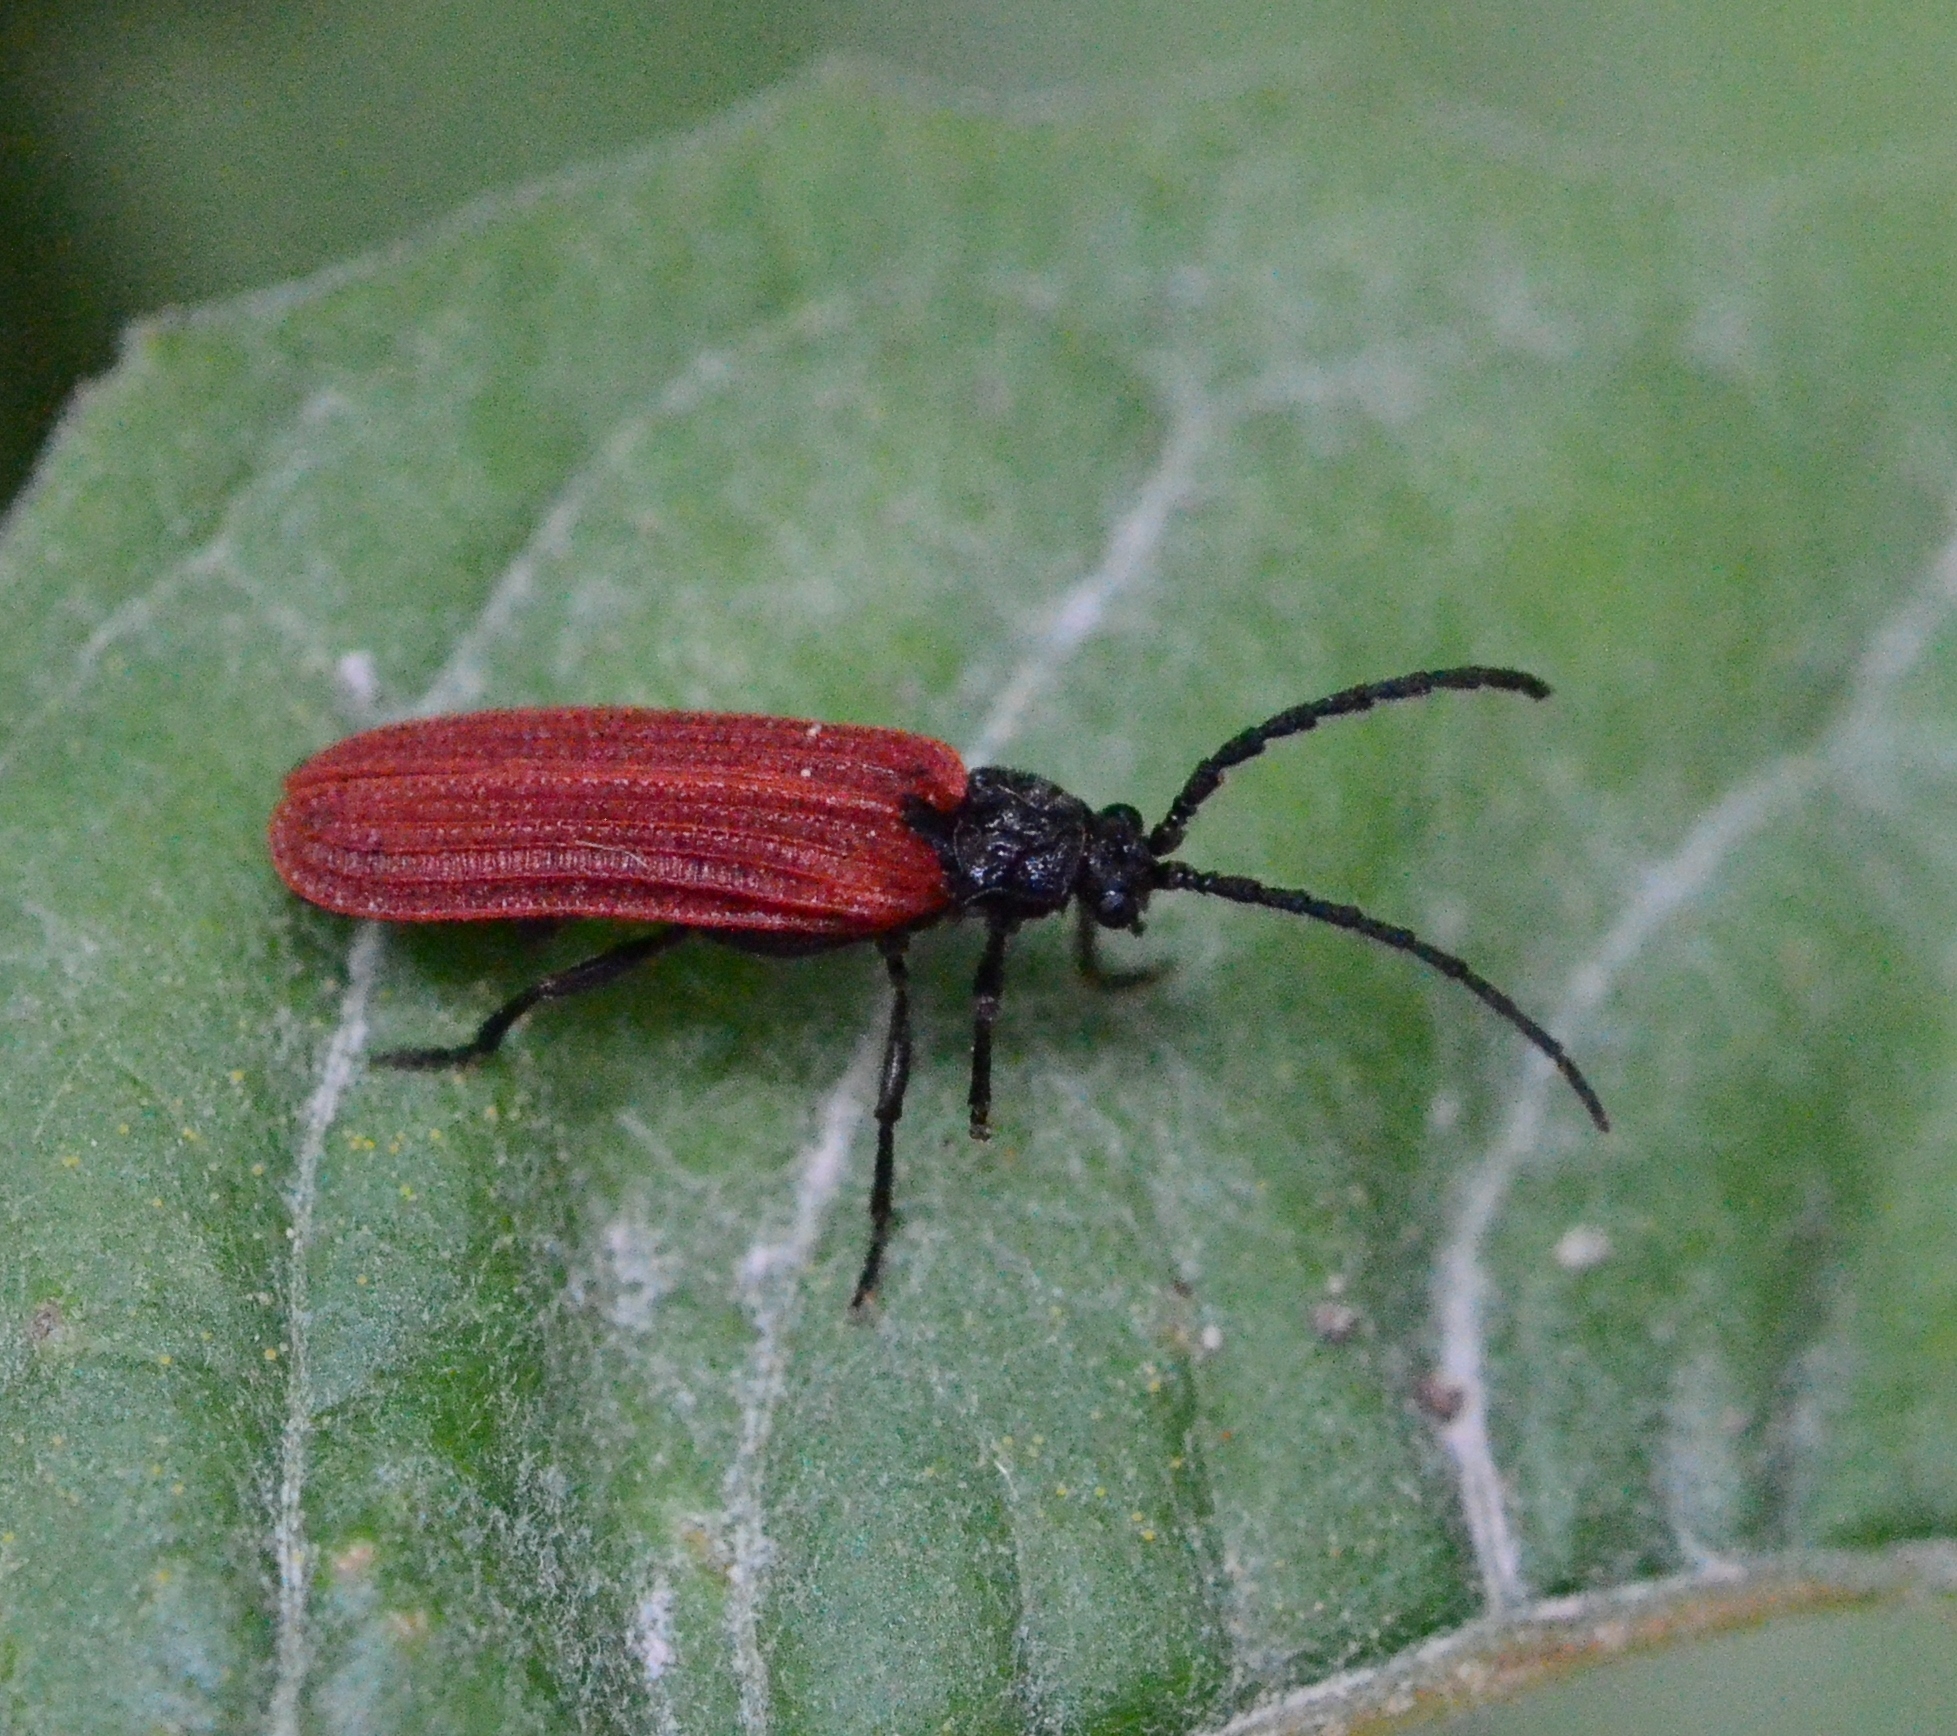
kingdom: Animalia
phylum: Arthropoda
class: Insecta
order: Coleoptera
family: Lycidae
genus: Pyropterus
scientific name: Pyropterus nigroruber
